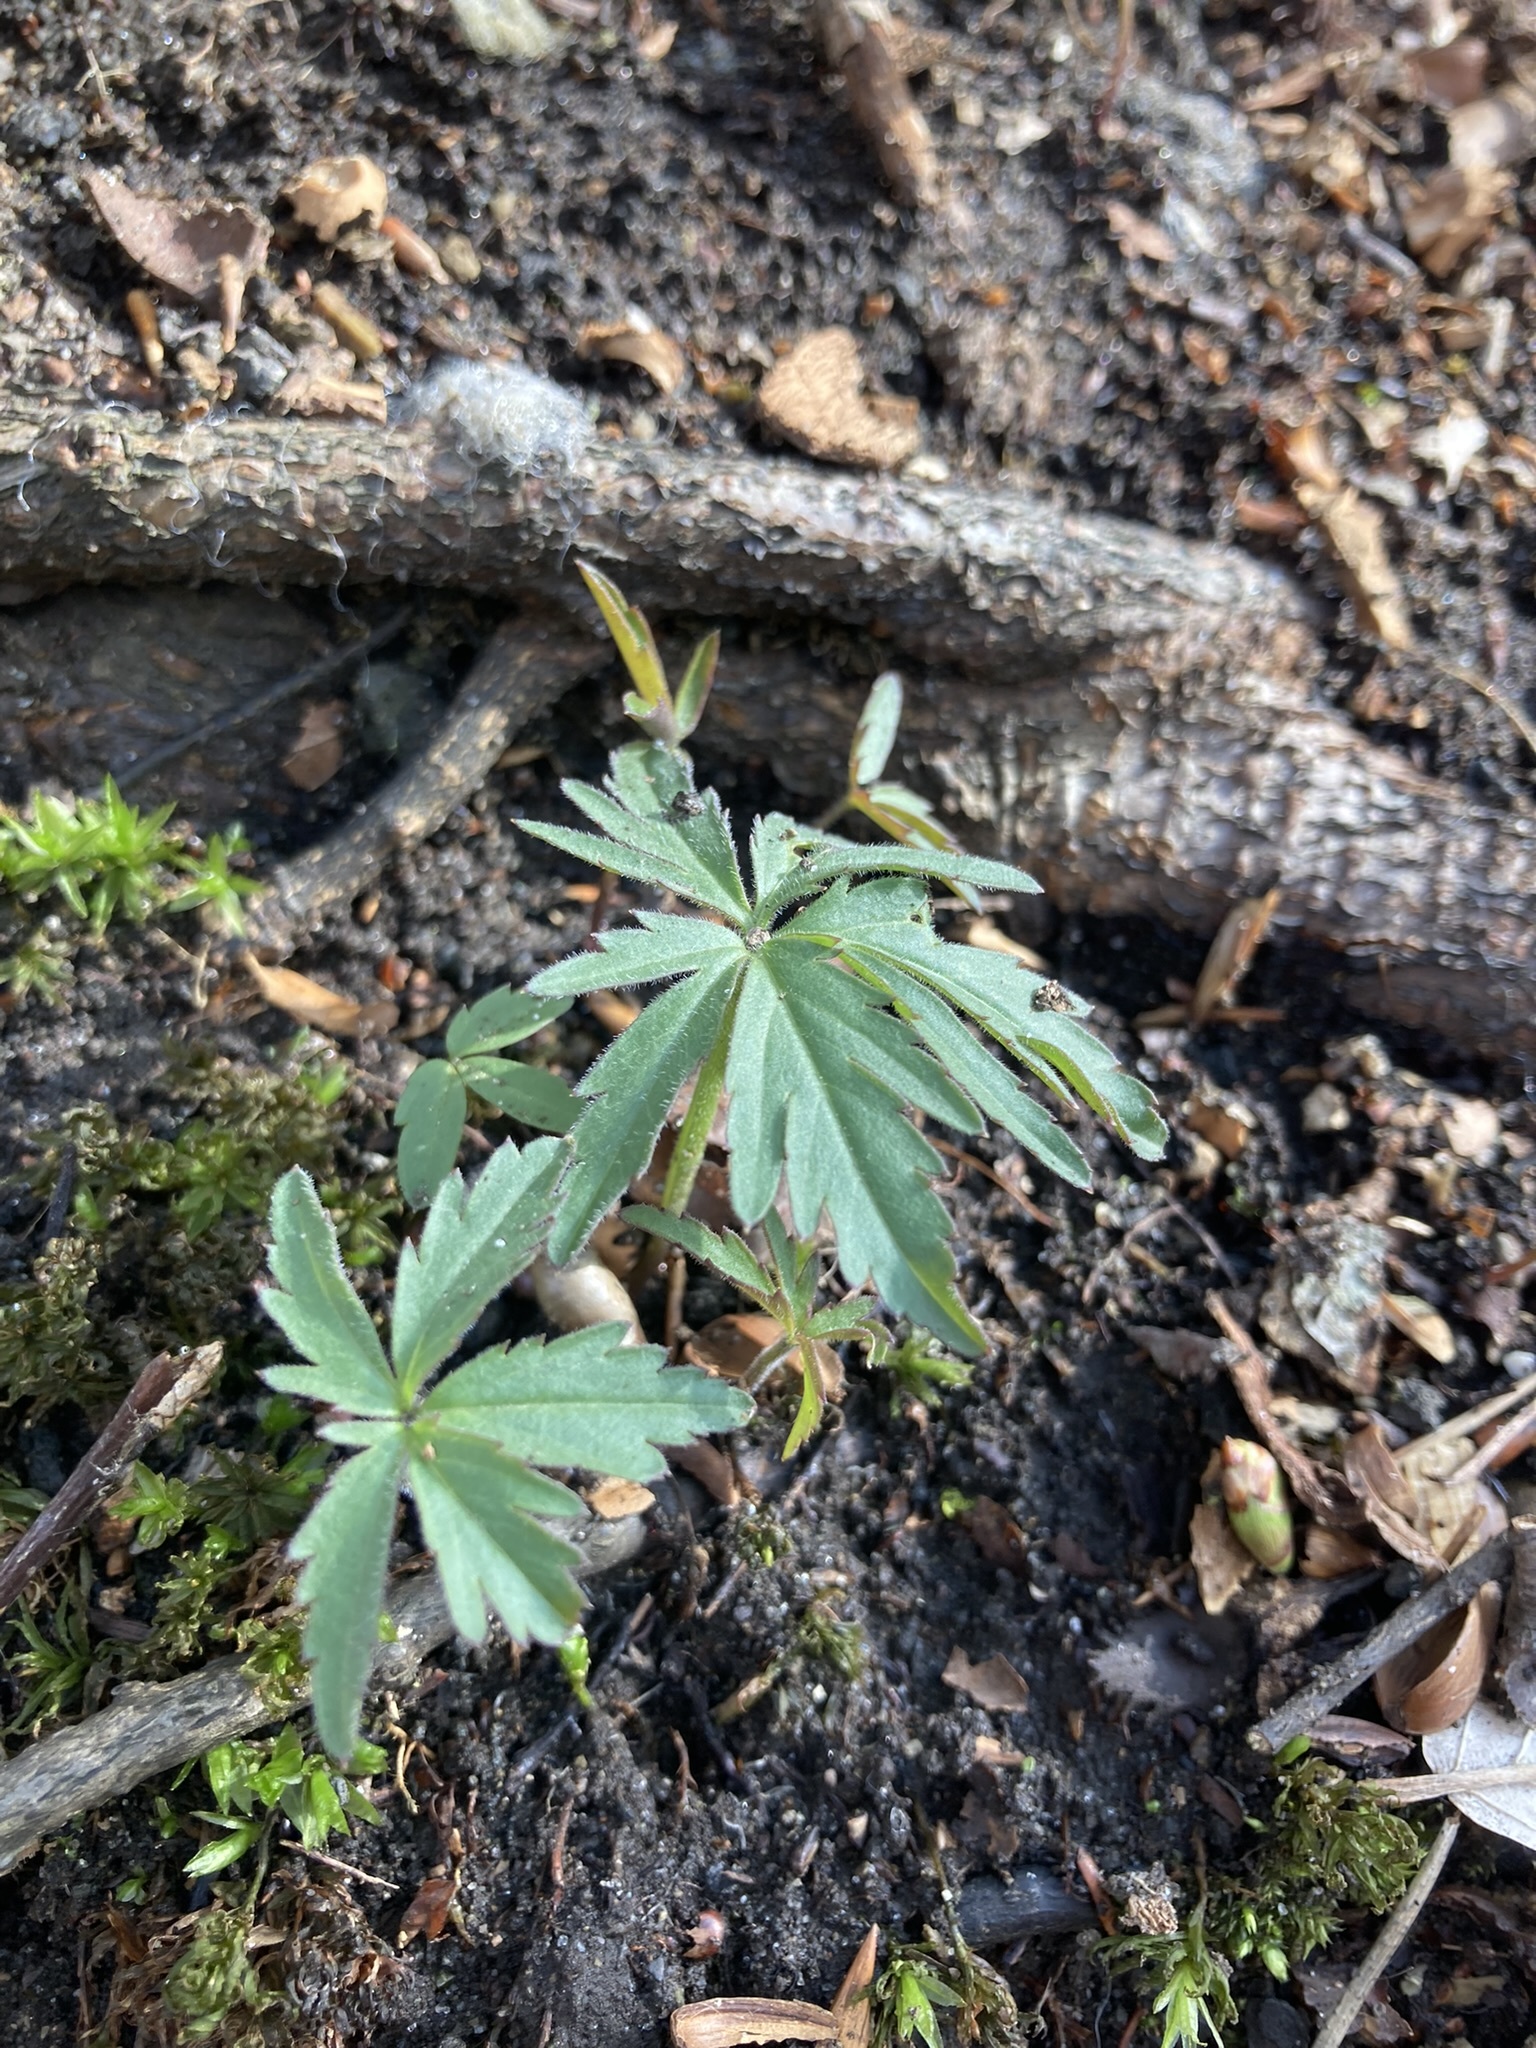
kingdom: Plantae
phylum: Tracheophyta
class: Magnoliopsida
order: Brassicales
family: Brassicaceae
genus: Cardamine
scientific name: Cardamine concatenata
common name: Cut-leaf toothcup
